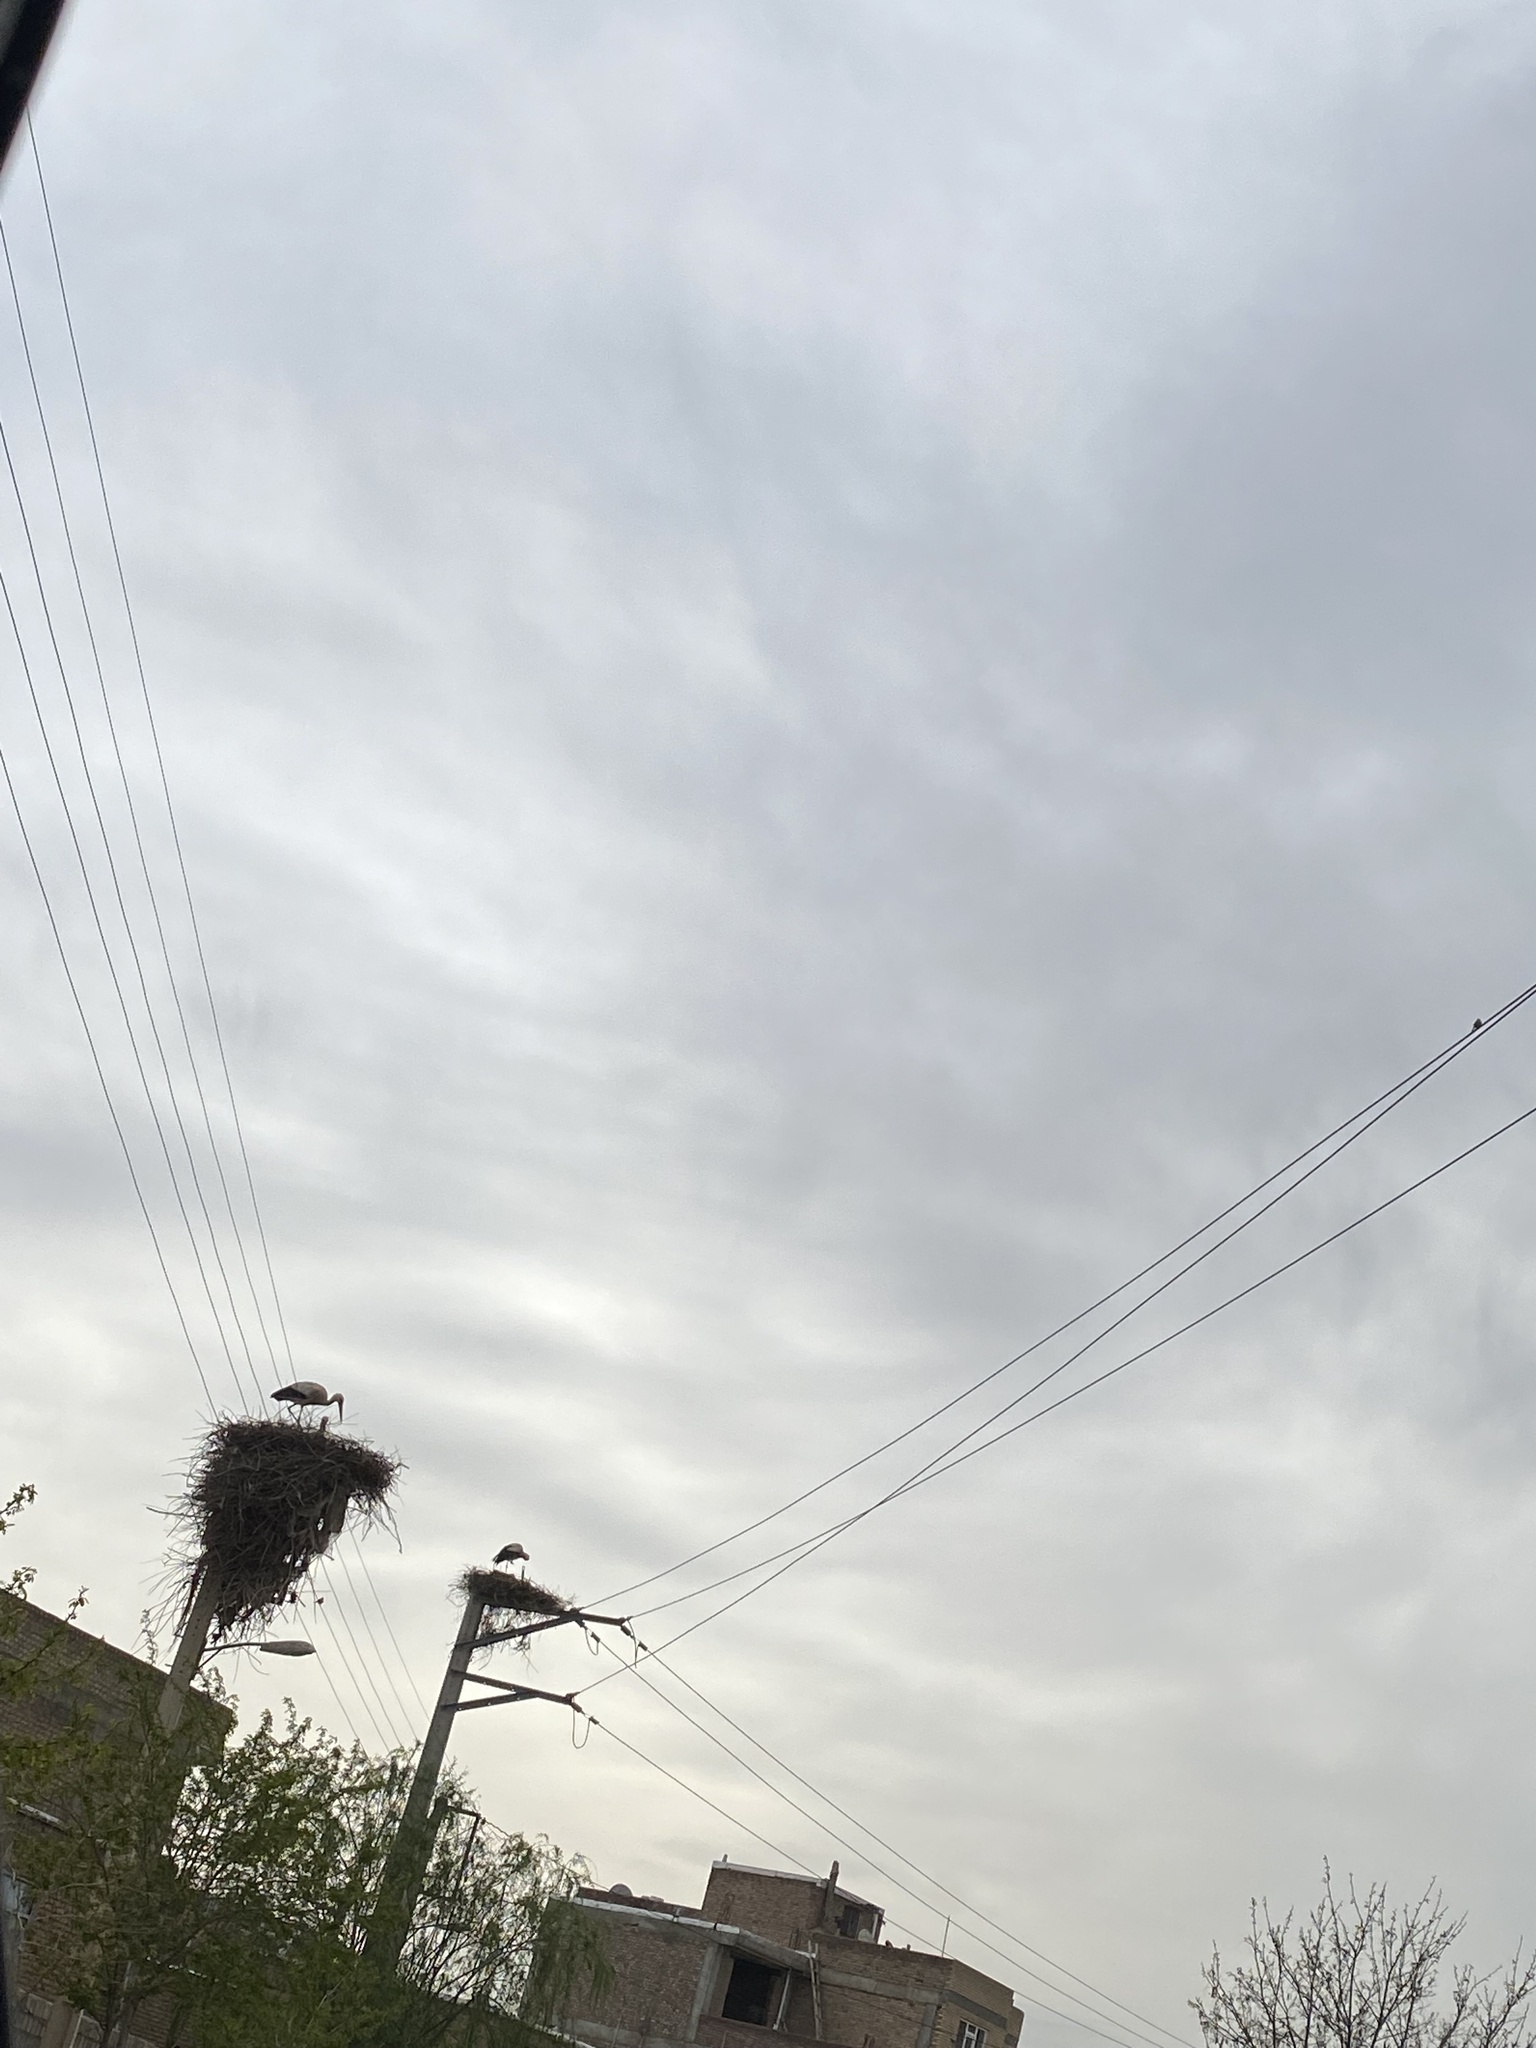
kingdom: Animalia
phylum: Chordata
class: Aves
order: Ciconiiformes
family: Ciconiidae
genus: Ciconia
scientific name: Ciconia ciconia
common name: White stork
